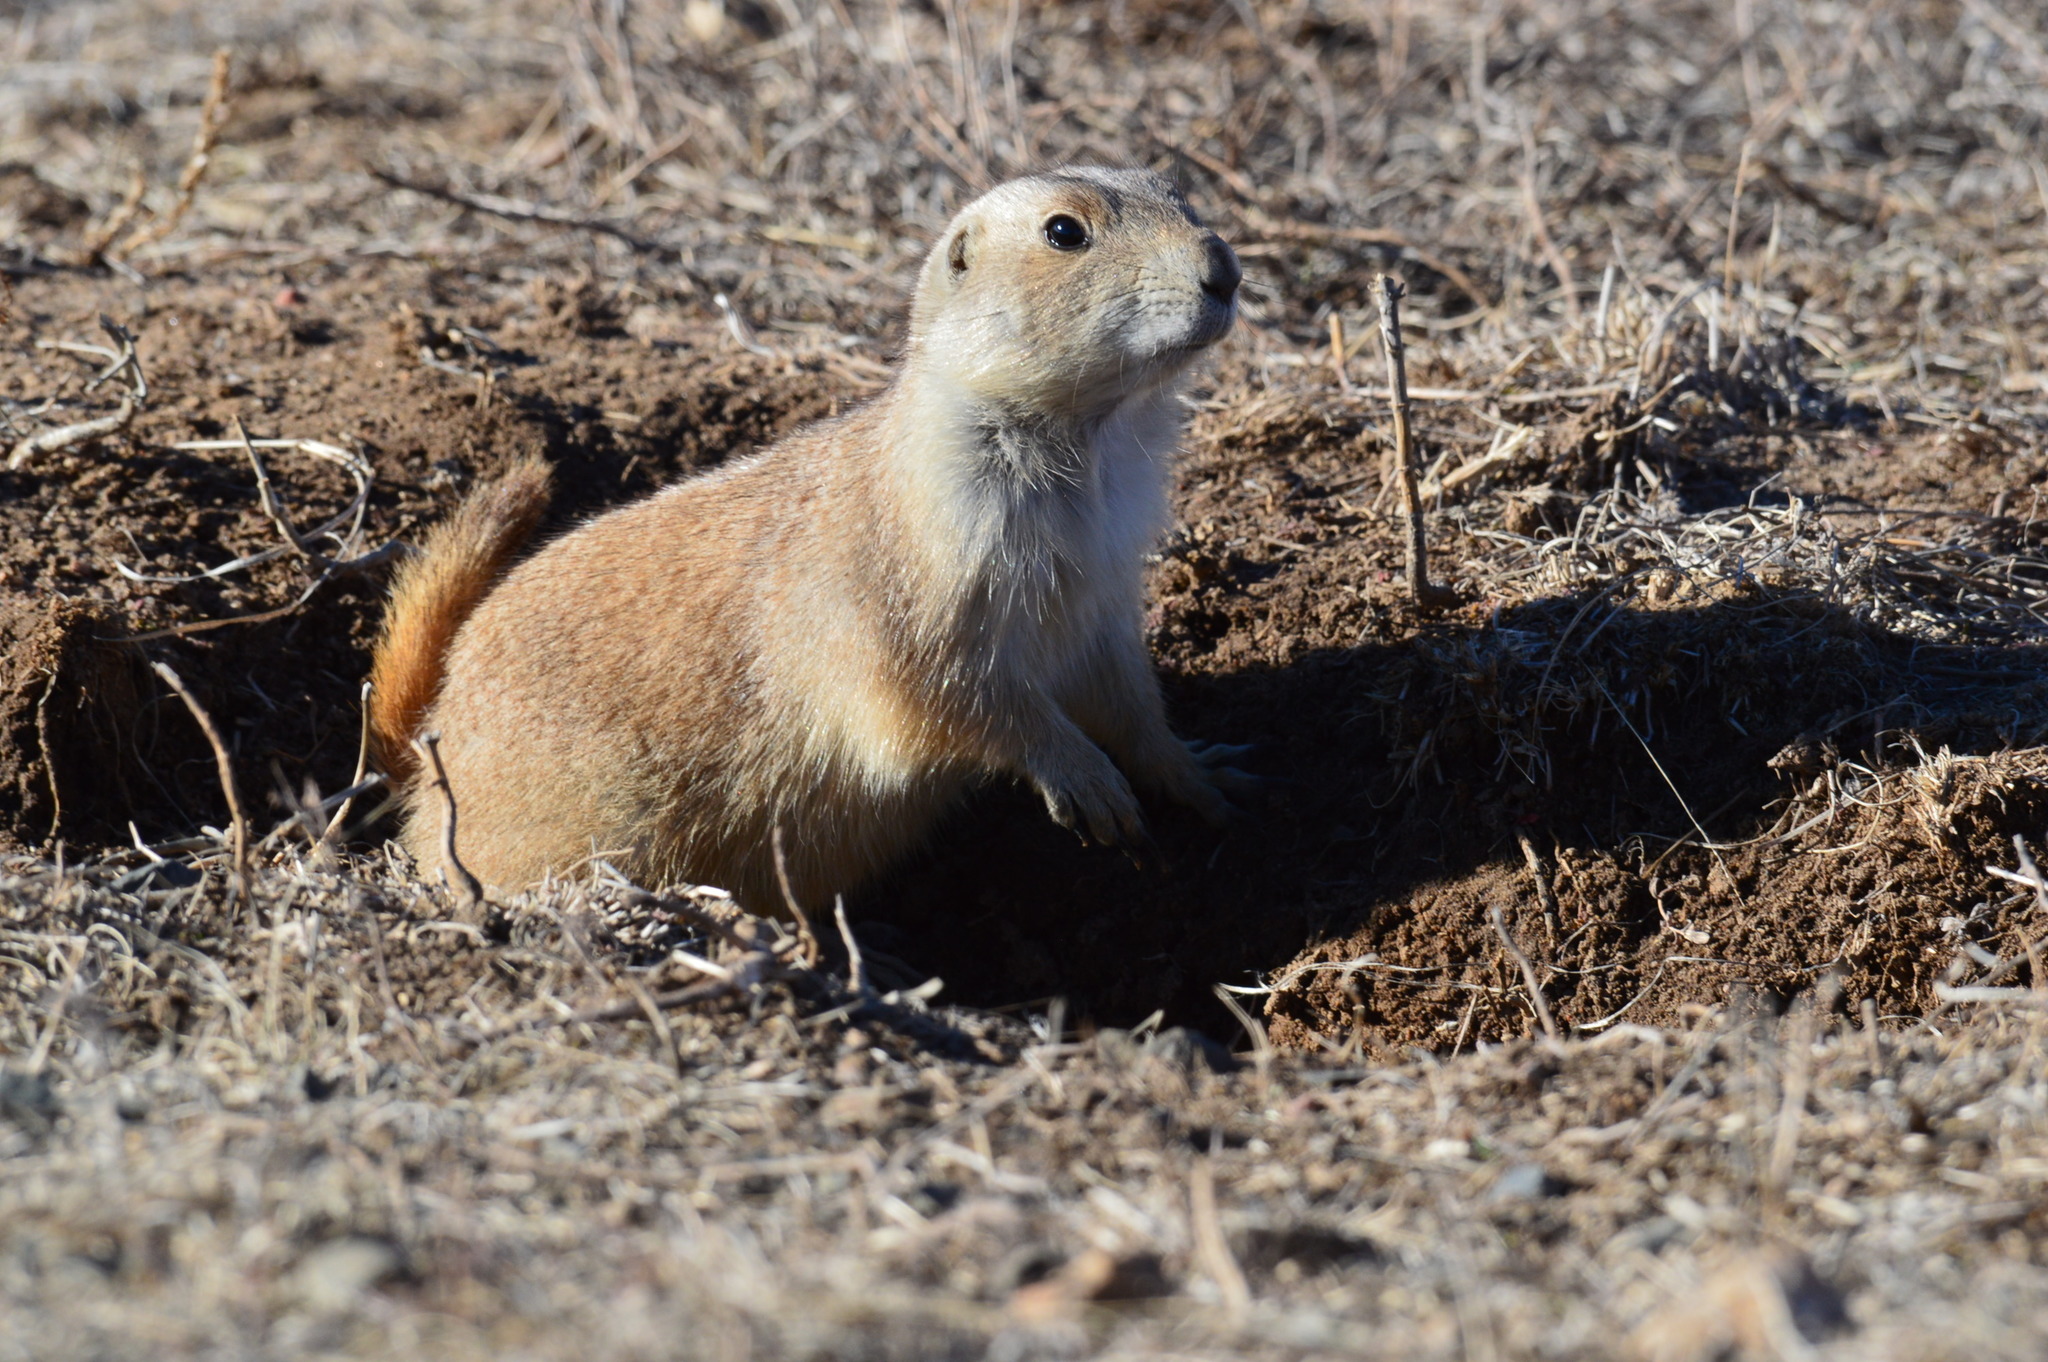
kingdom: Animalia
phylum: Chordata
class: Mammalia
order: Rodentia
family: Sciuridae
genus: Cynomys
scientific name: Cynomys ludovicianus
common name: Black-tailed prairie dog
